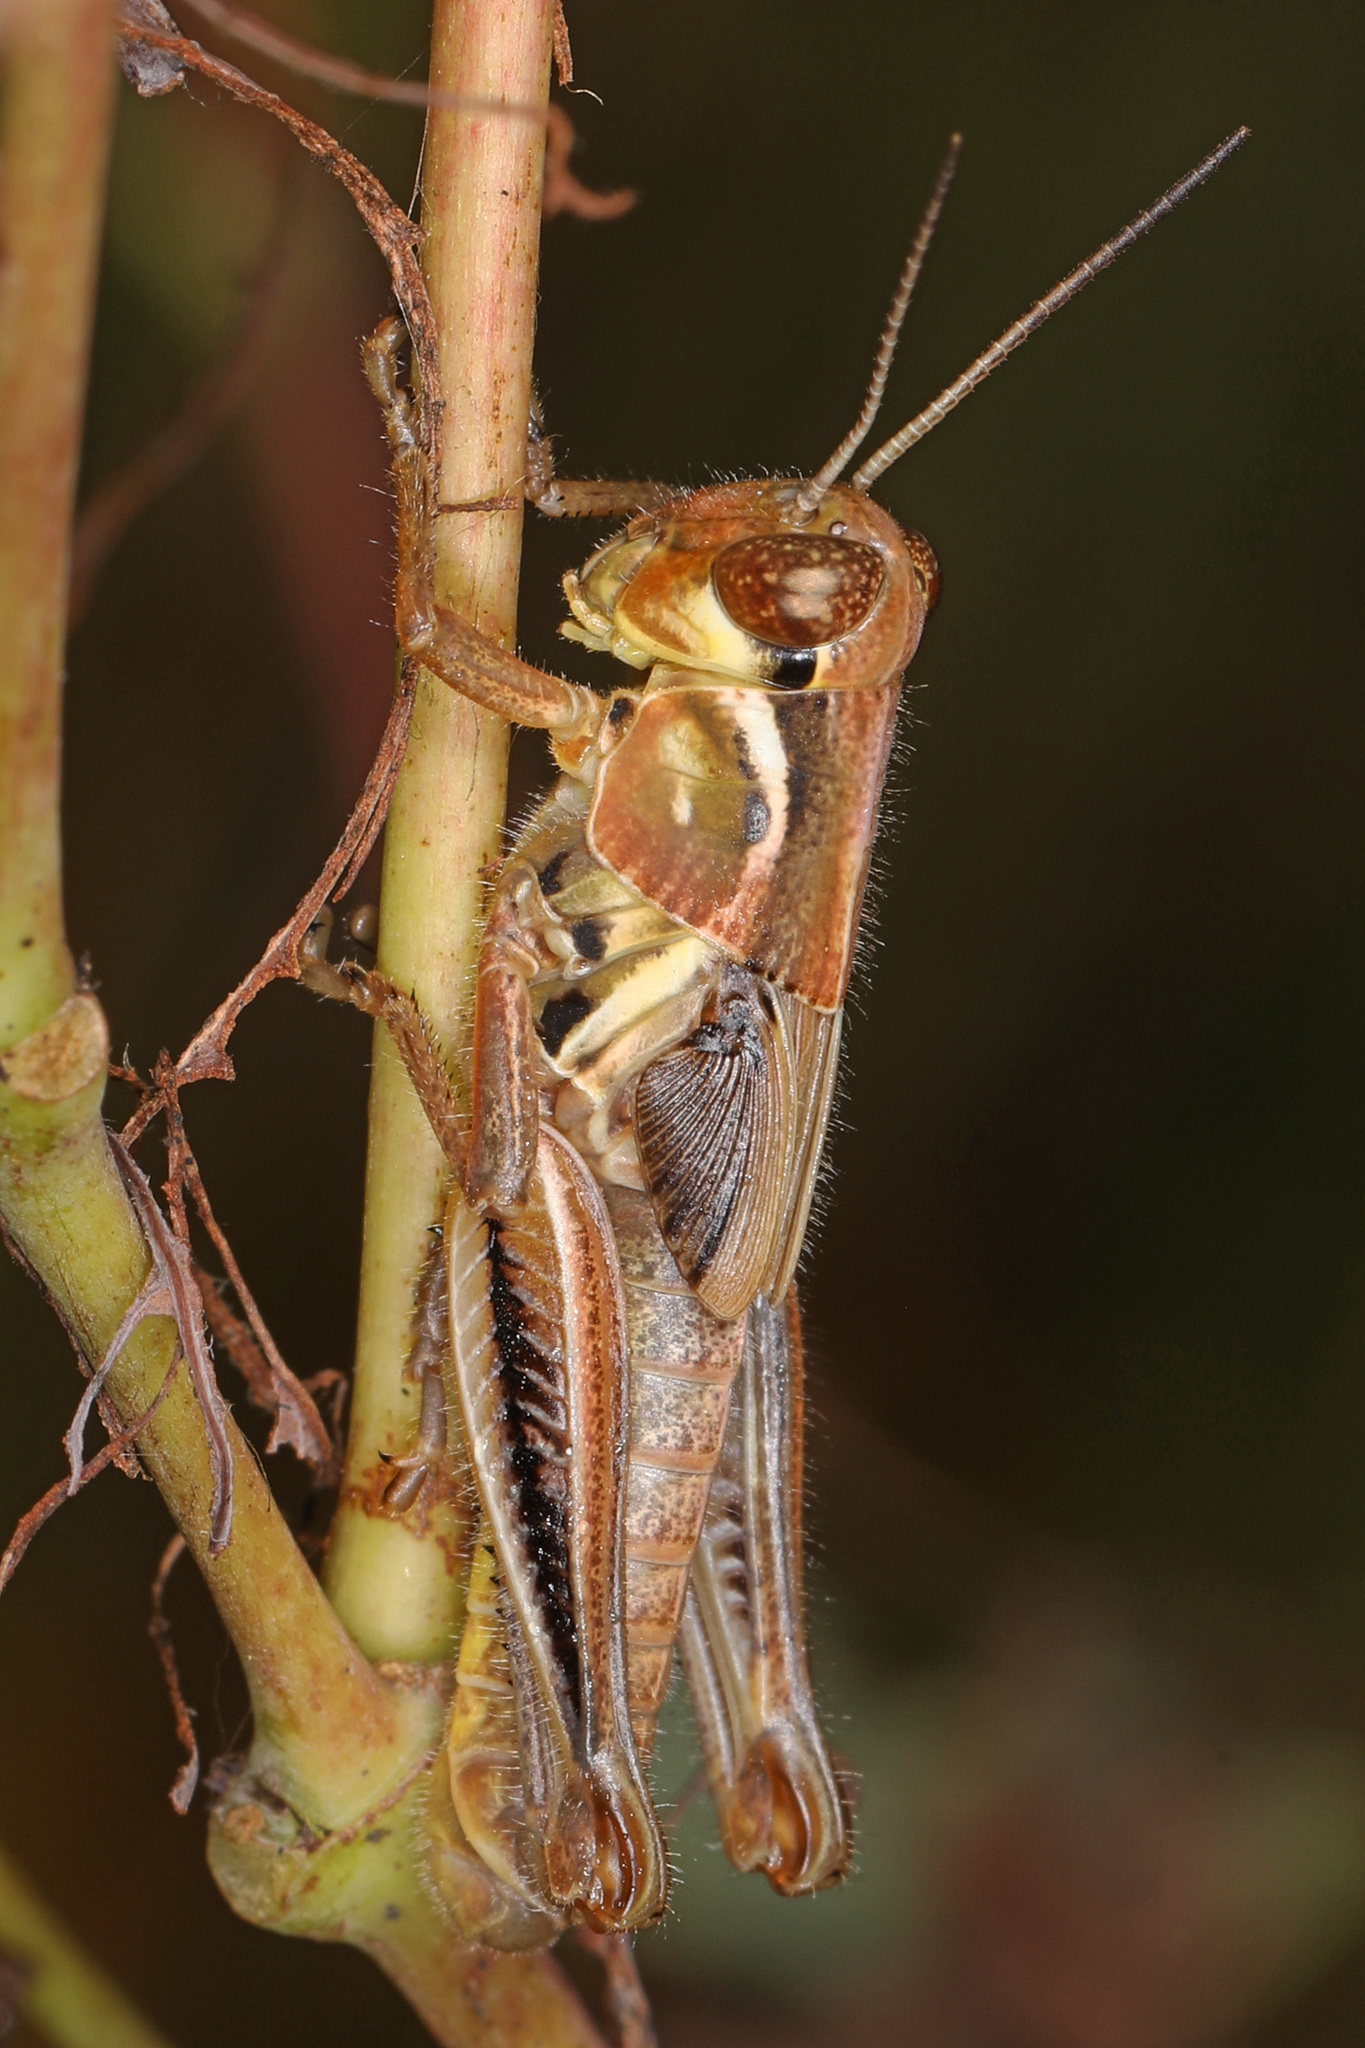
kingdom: Animalia
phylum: Arthropoda
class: Insecta
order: Orthoptera
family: Acrididae
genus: Melanoplus
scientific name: Melanoplus femurrubrum
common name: Red-legged grasshopper
